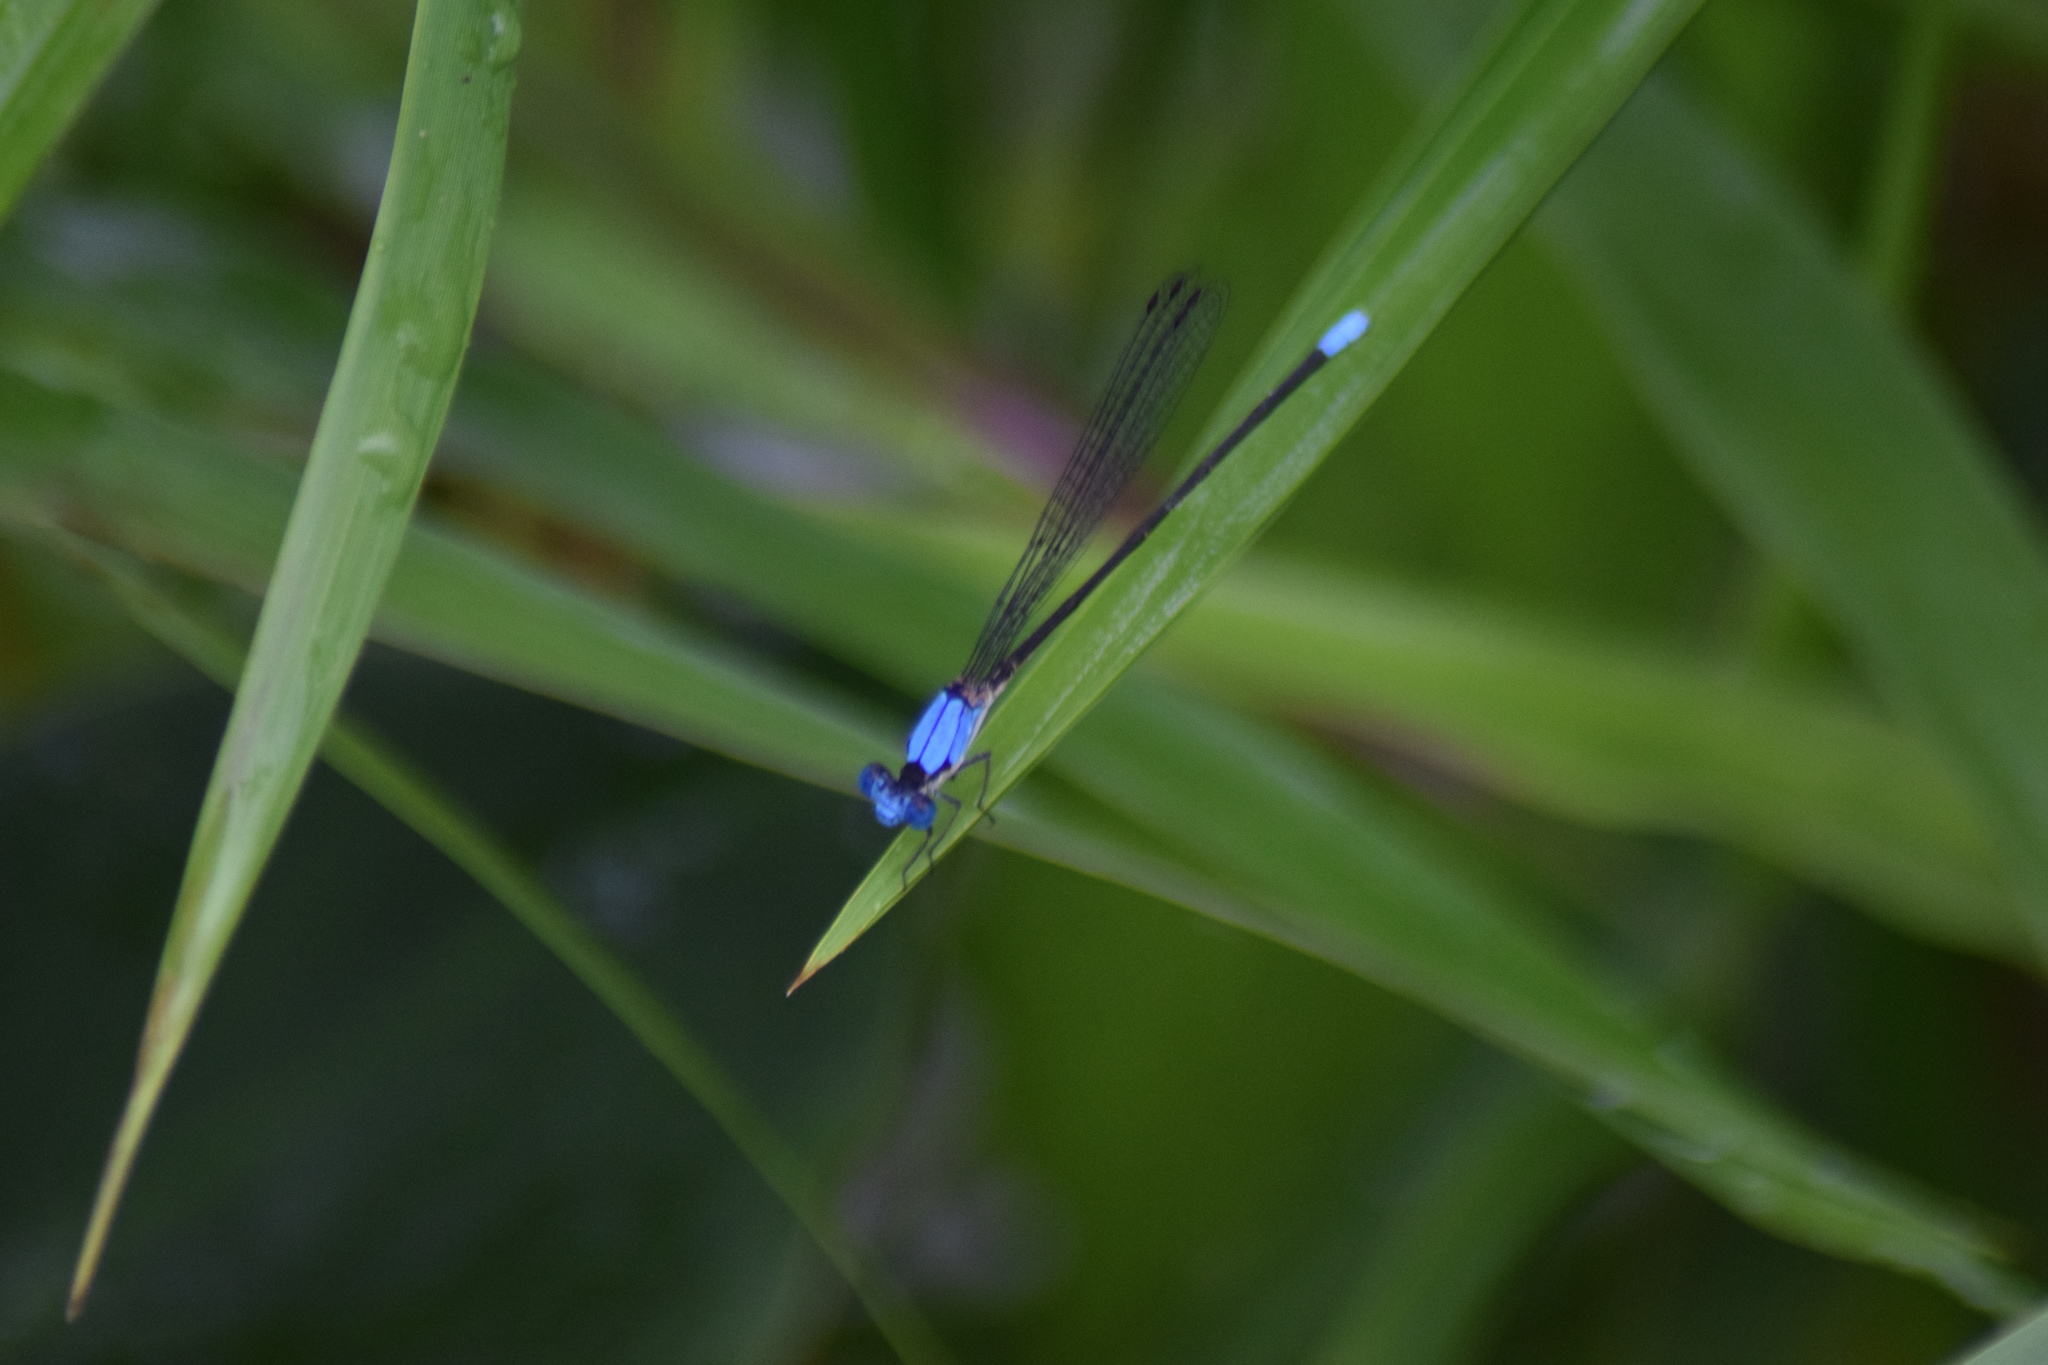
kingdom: Animalia
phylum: Arthropoda
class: Insecta
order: Odonata
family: Coenagrionidae
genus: Argia
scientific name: Argia apicalis
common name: Blue-fronted dancer
